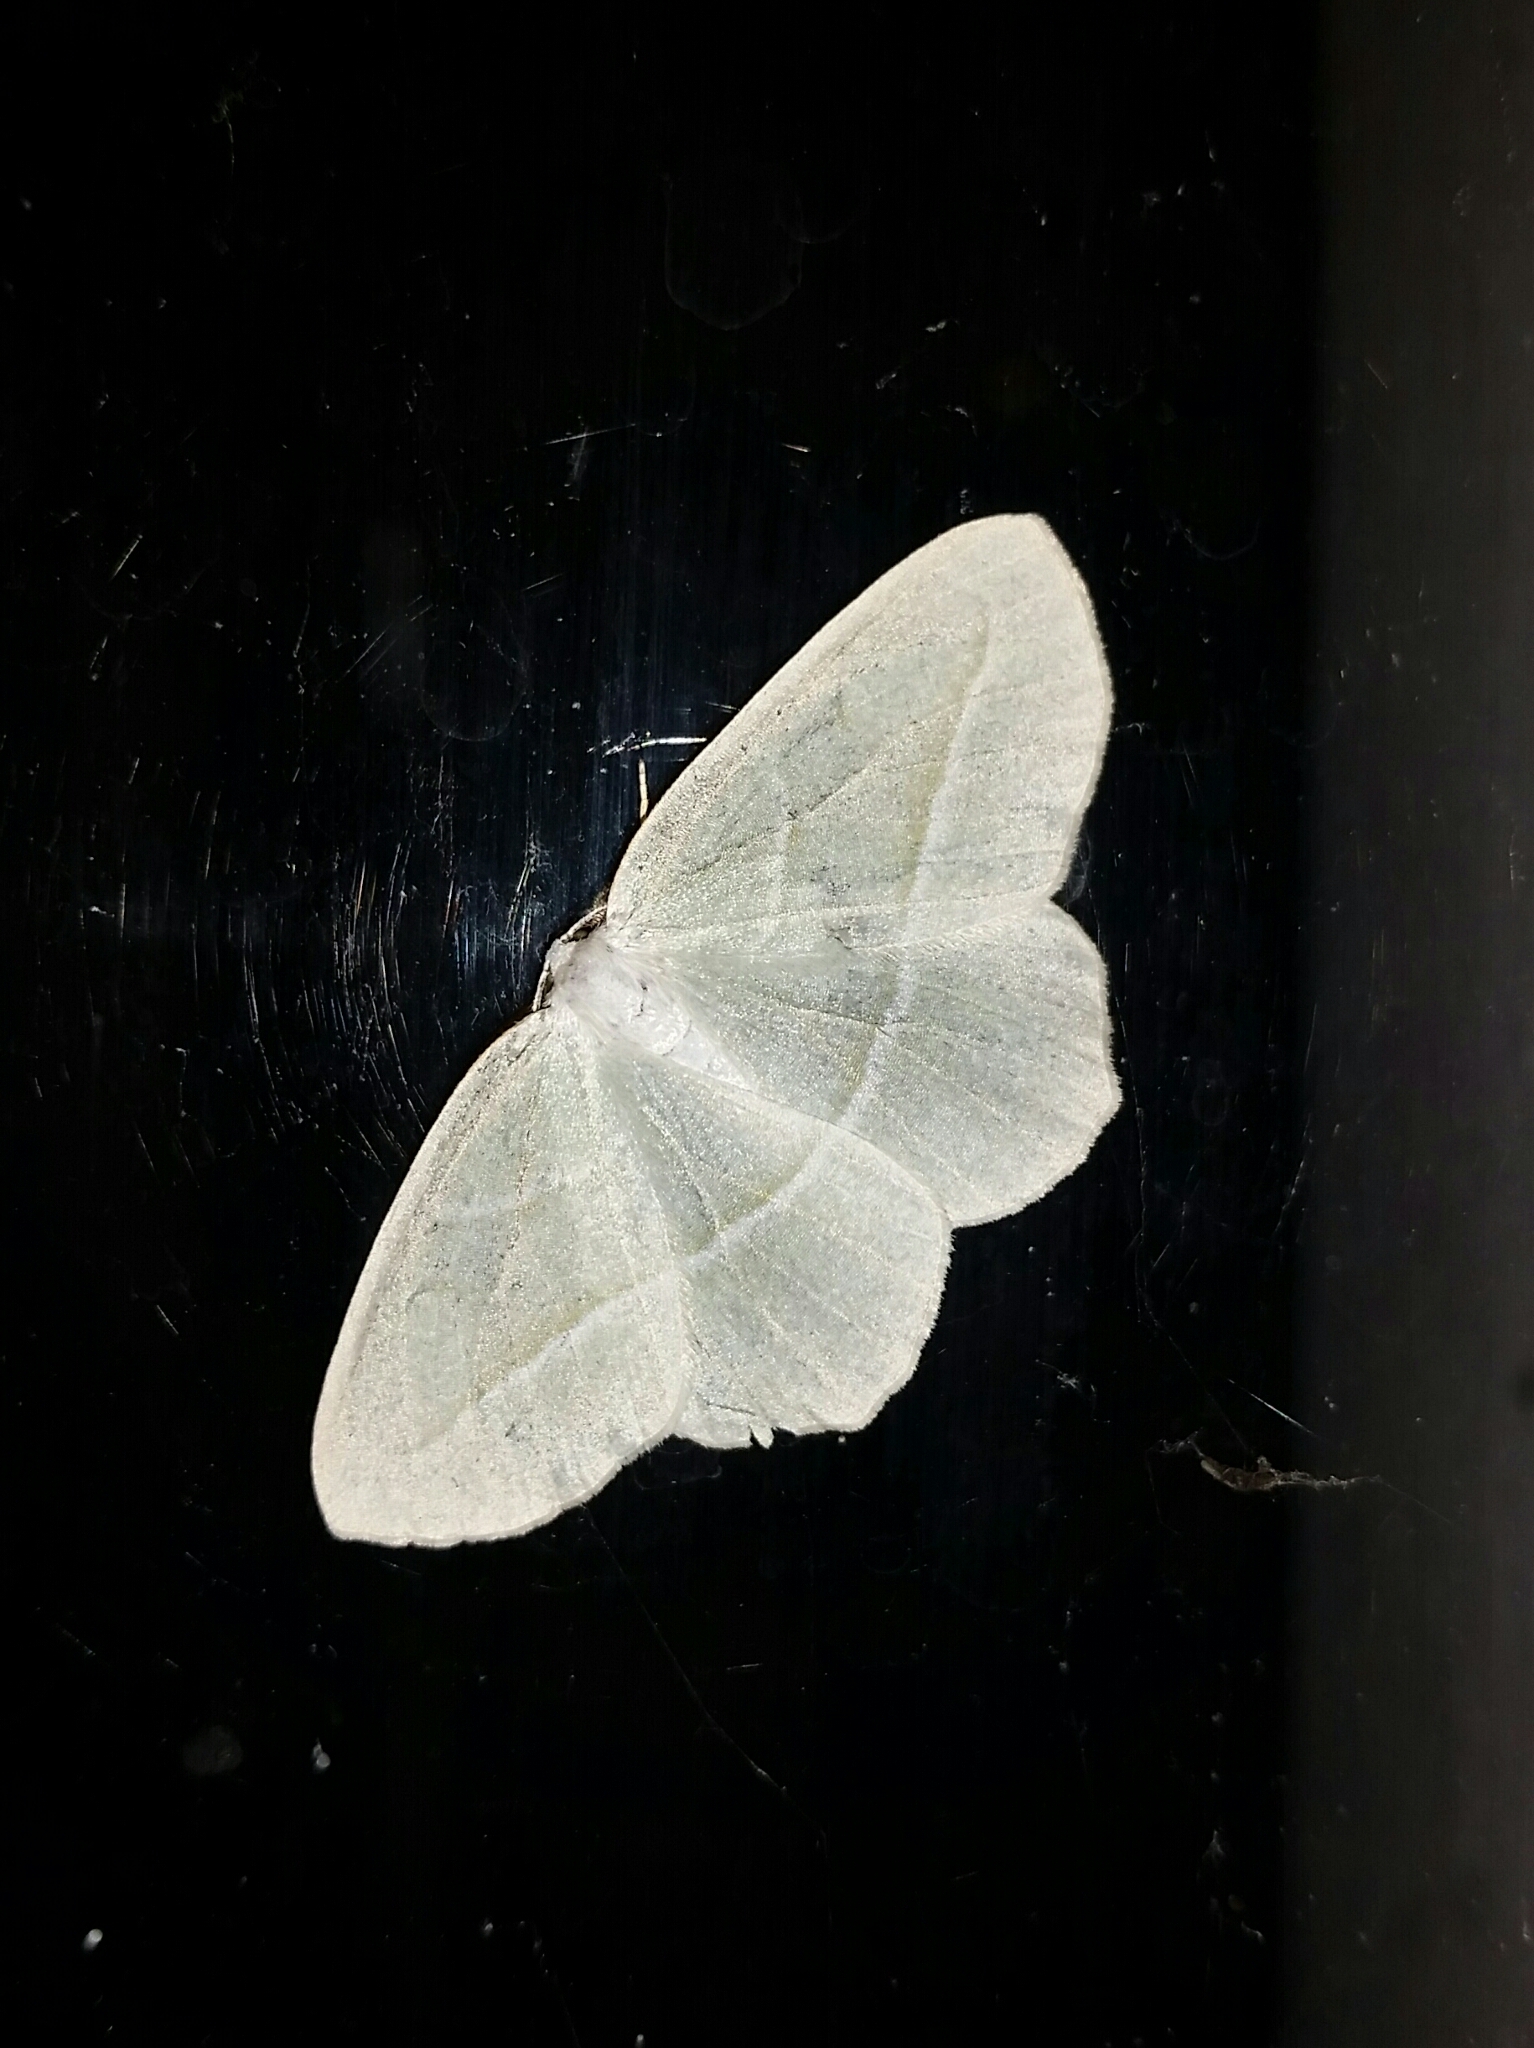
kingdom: Animalia
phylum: Arthropoda
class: Insecta
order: Lepidoptera
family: Geometridae
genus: Campaea
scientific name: Campaea perlata
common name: Fringed looper
